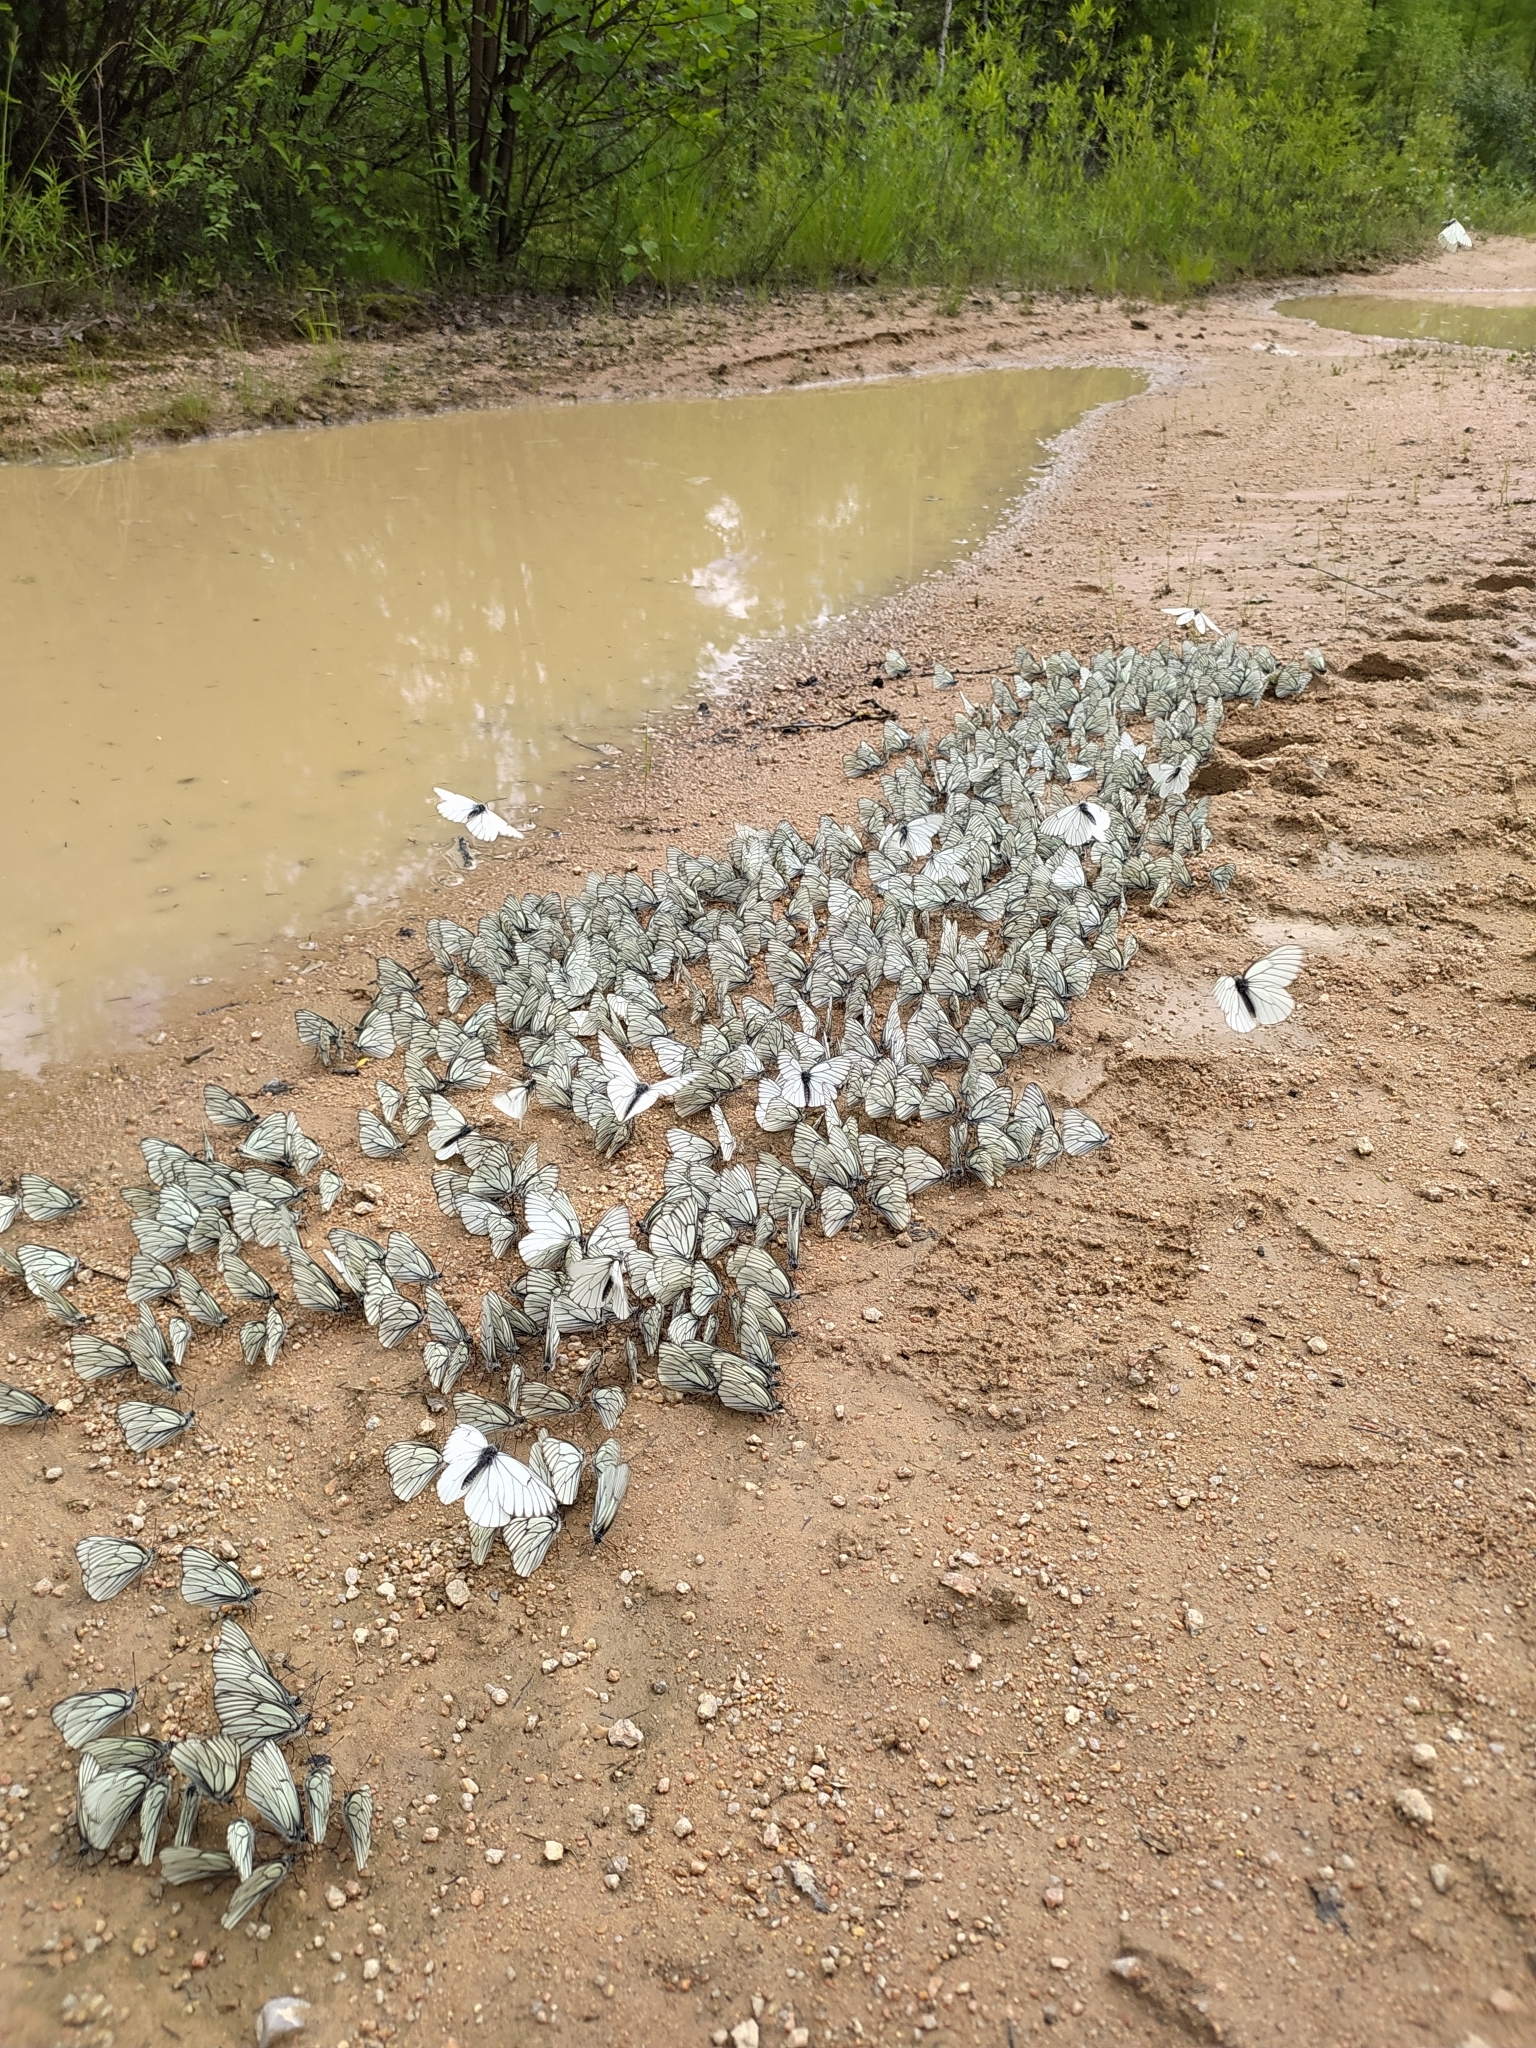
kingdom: Animalia
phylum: Arthropoda
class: Insecta
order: Lepidoptera
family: Pieridae
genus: Aporia
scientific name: Aporia crataegi
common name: Black-veined white
